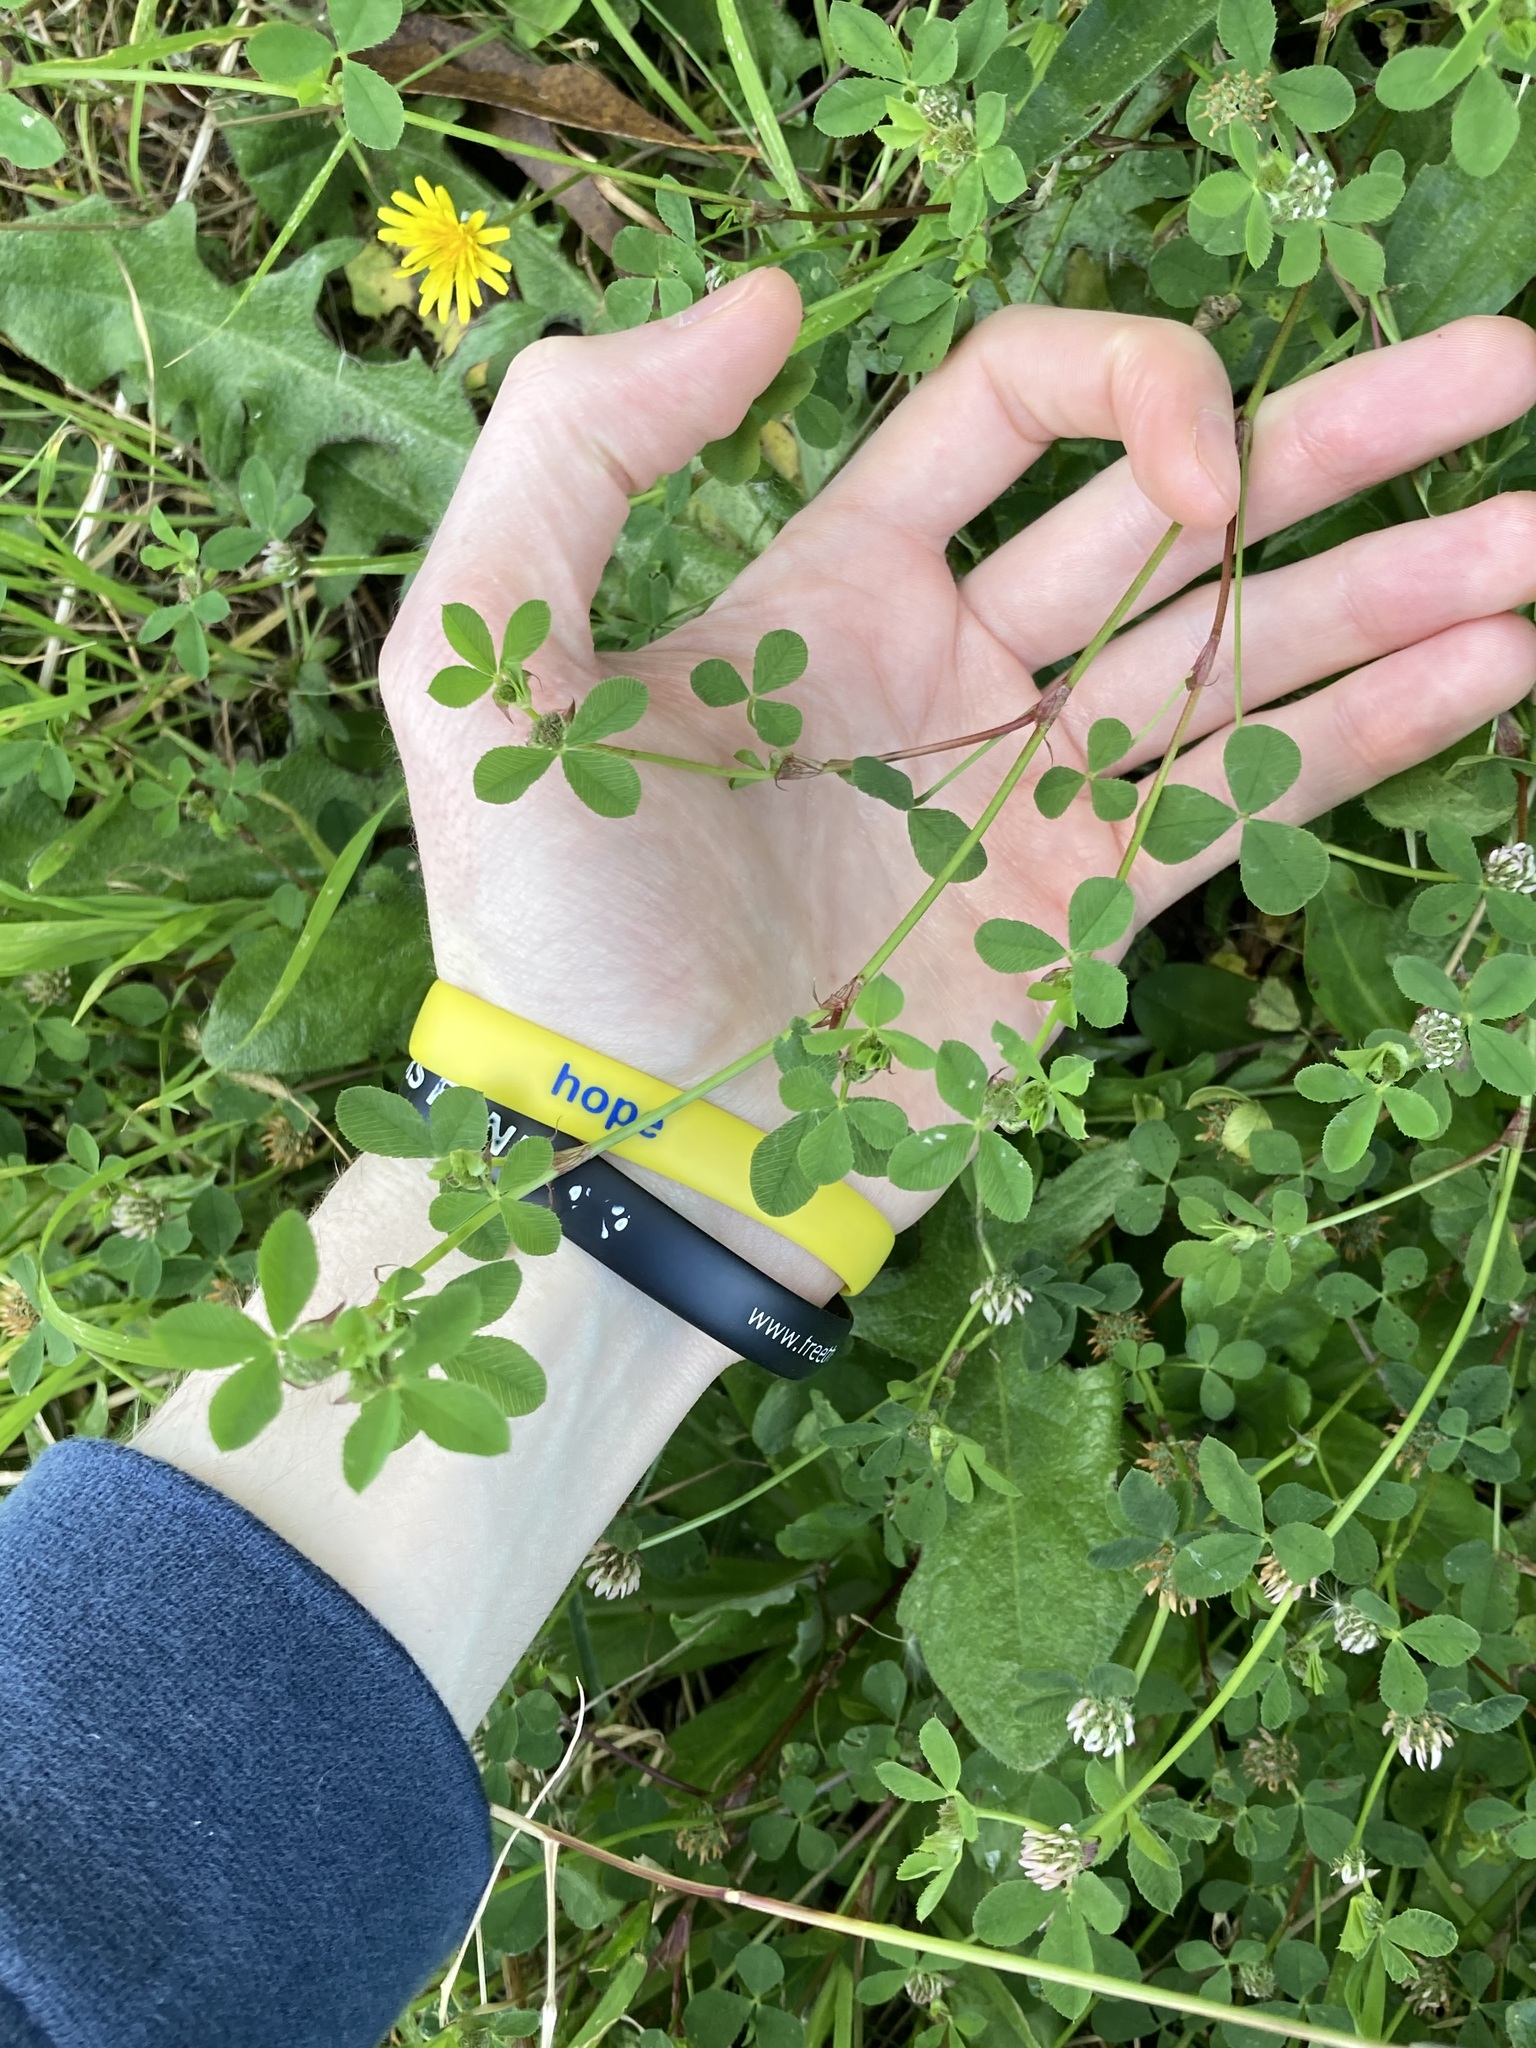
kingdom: Plantae
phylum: Tracheophyta
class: Magnoliopsida
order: Fabales
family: Fabaceae
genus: Trifolium
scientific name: Trifolium glomeratum
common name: Clustered clover
